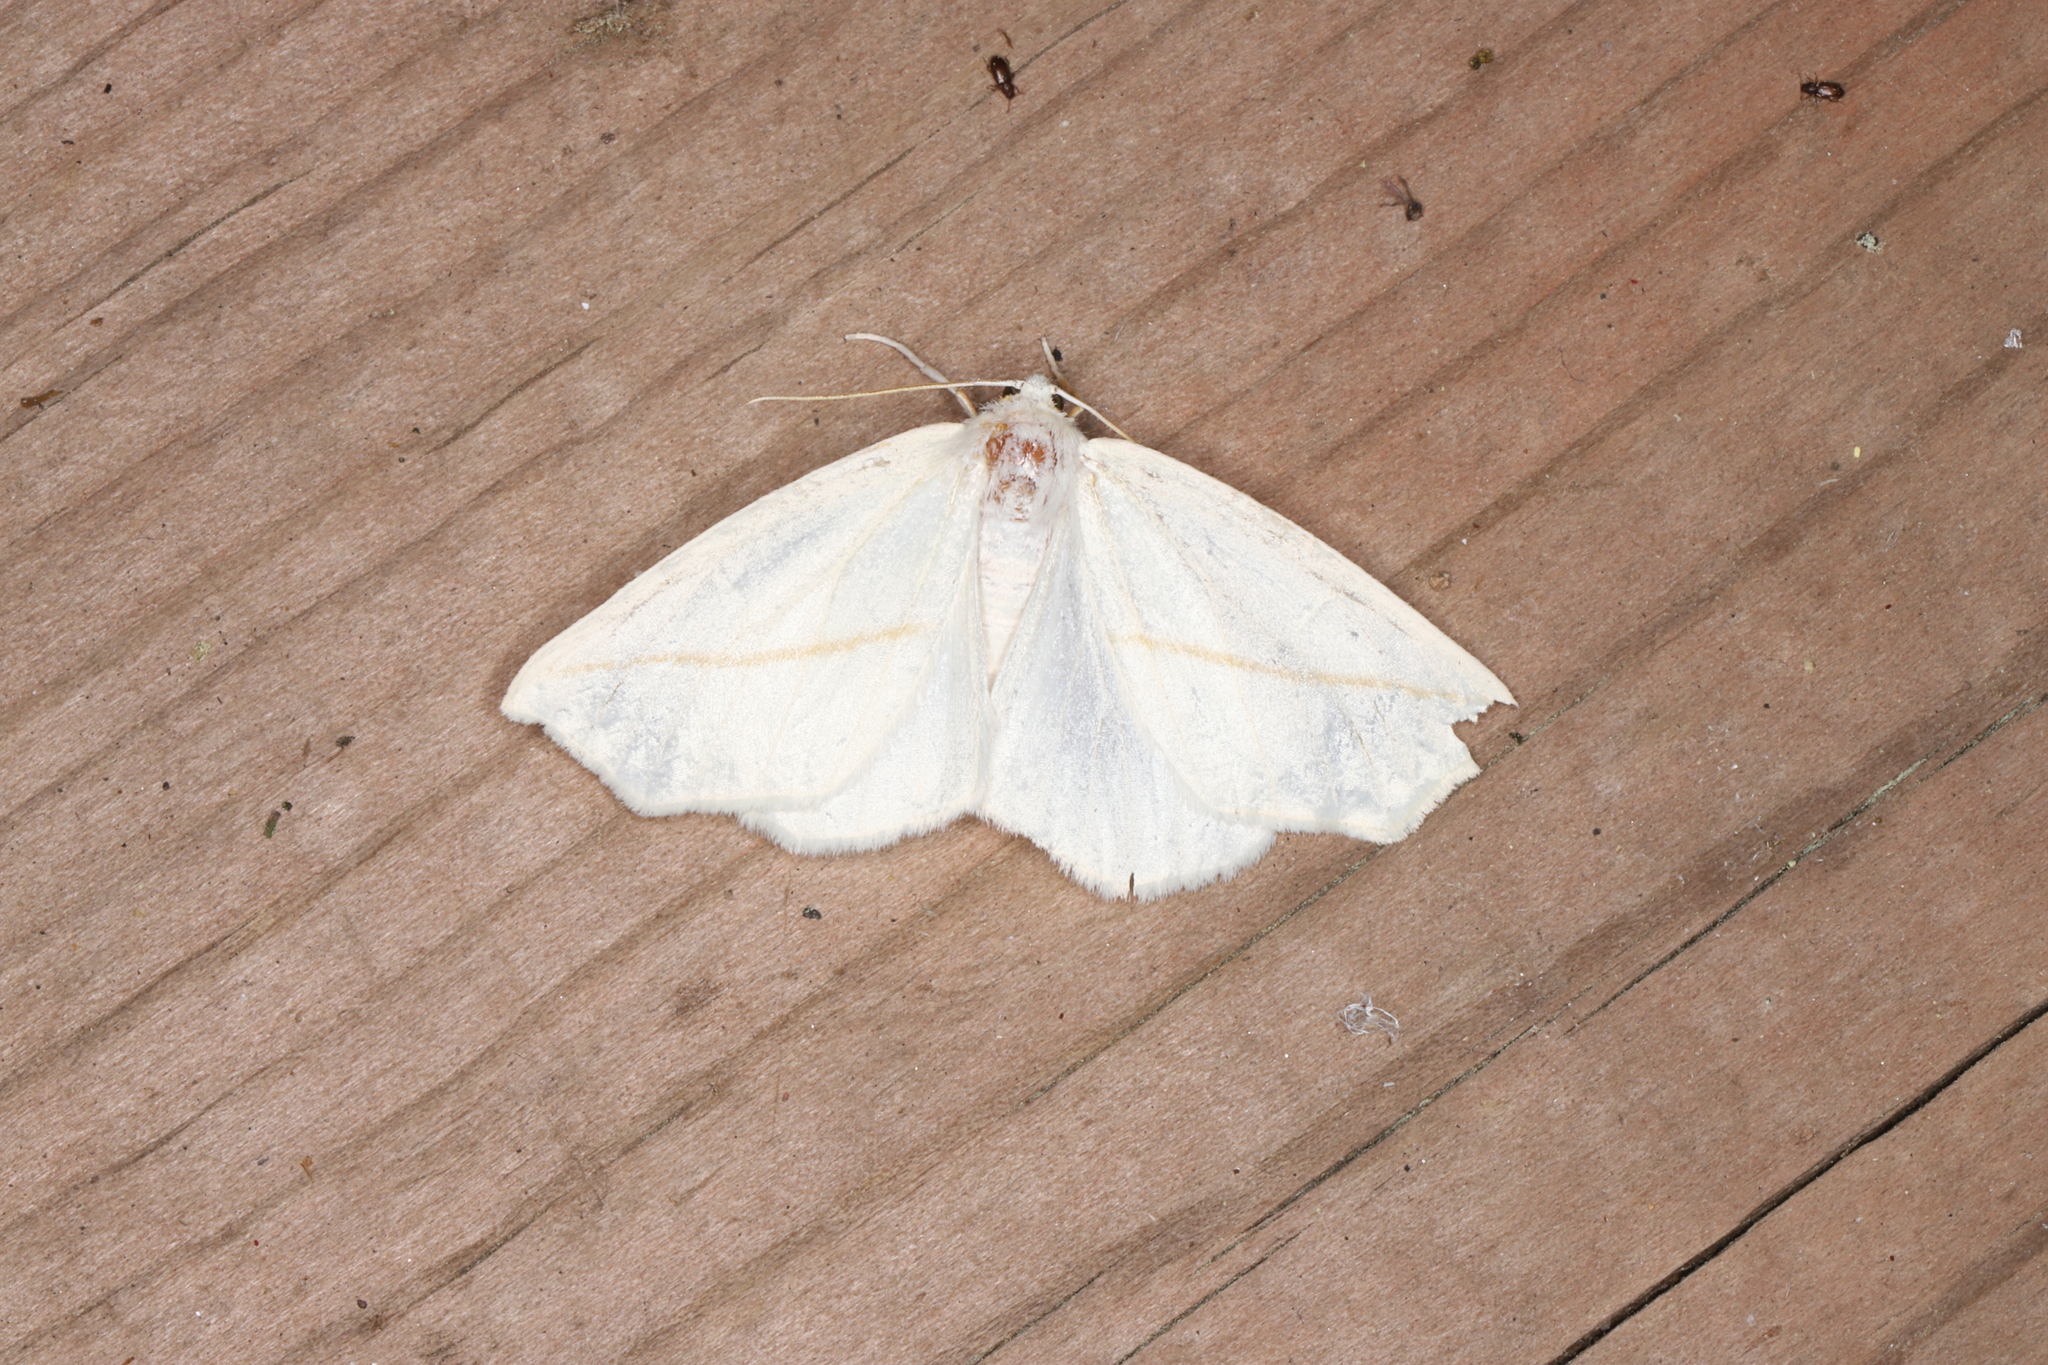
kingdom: Animalia
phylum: Arthropoda
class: Insecta
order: Lepidoptera
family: Geometridae
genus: Tetracis
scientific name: Tetracis cachexiata
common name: White slant-line
